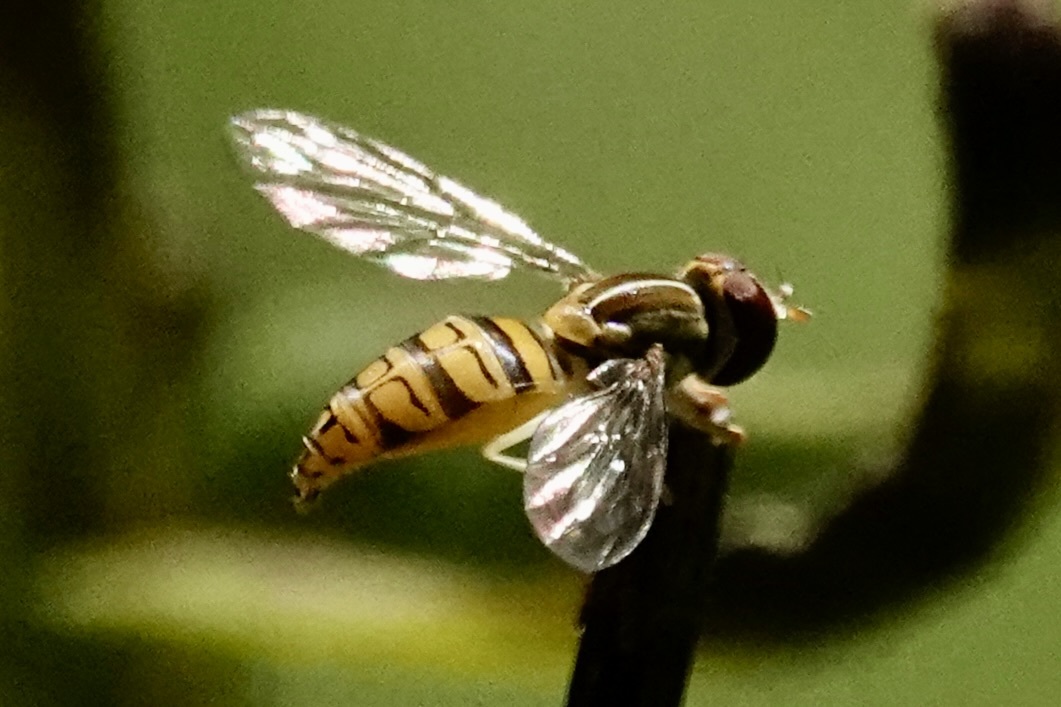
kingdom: Animalia
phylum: Arthropoda
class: Insecta
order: Diptera
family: Syrphidae
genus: Toxomerus
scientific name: Toxomerus politus
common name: Maize calligrapher
